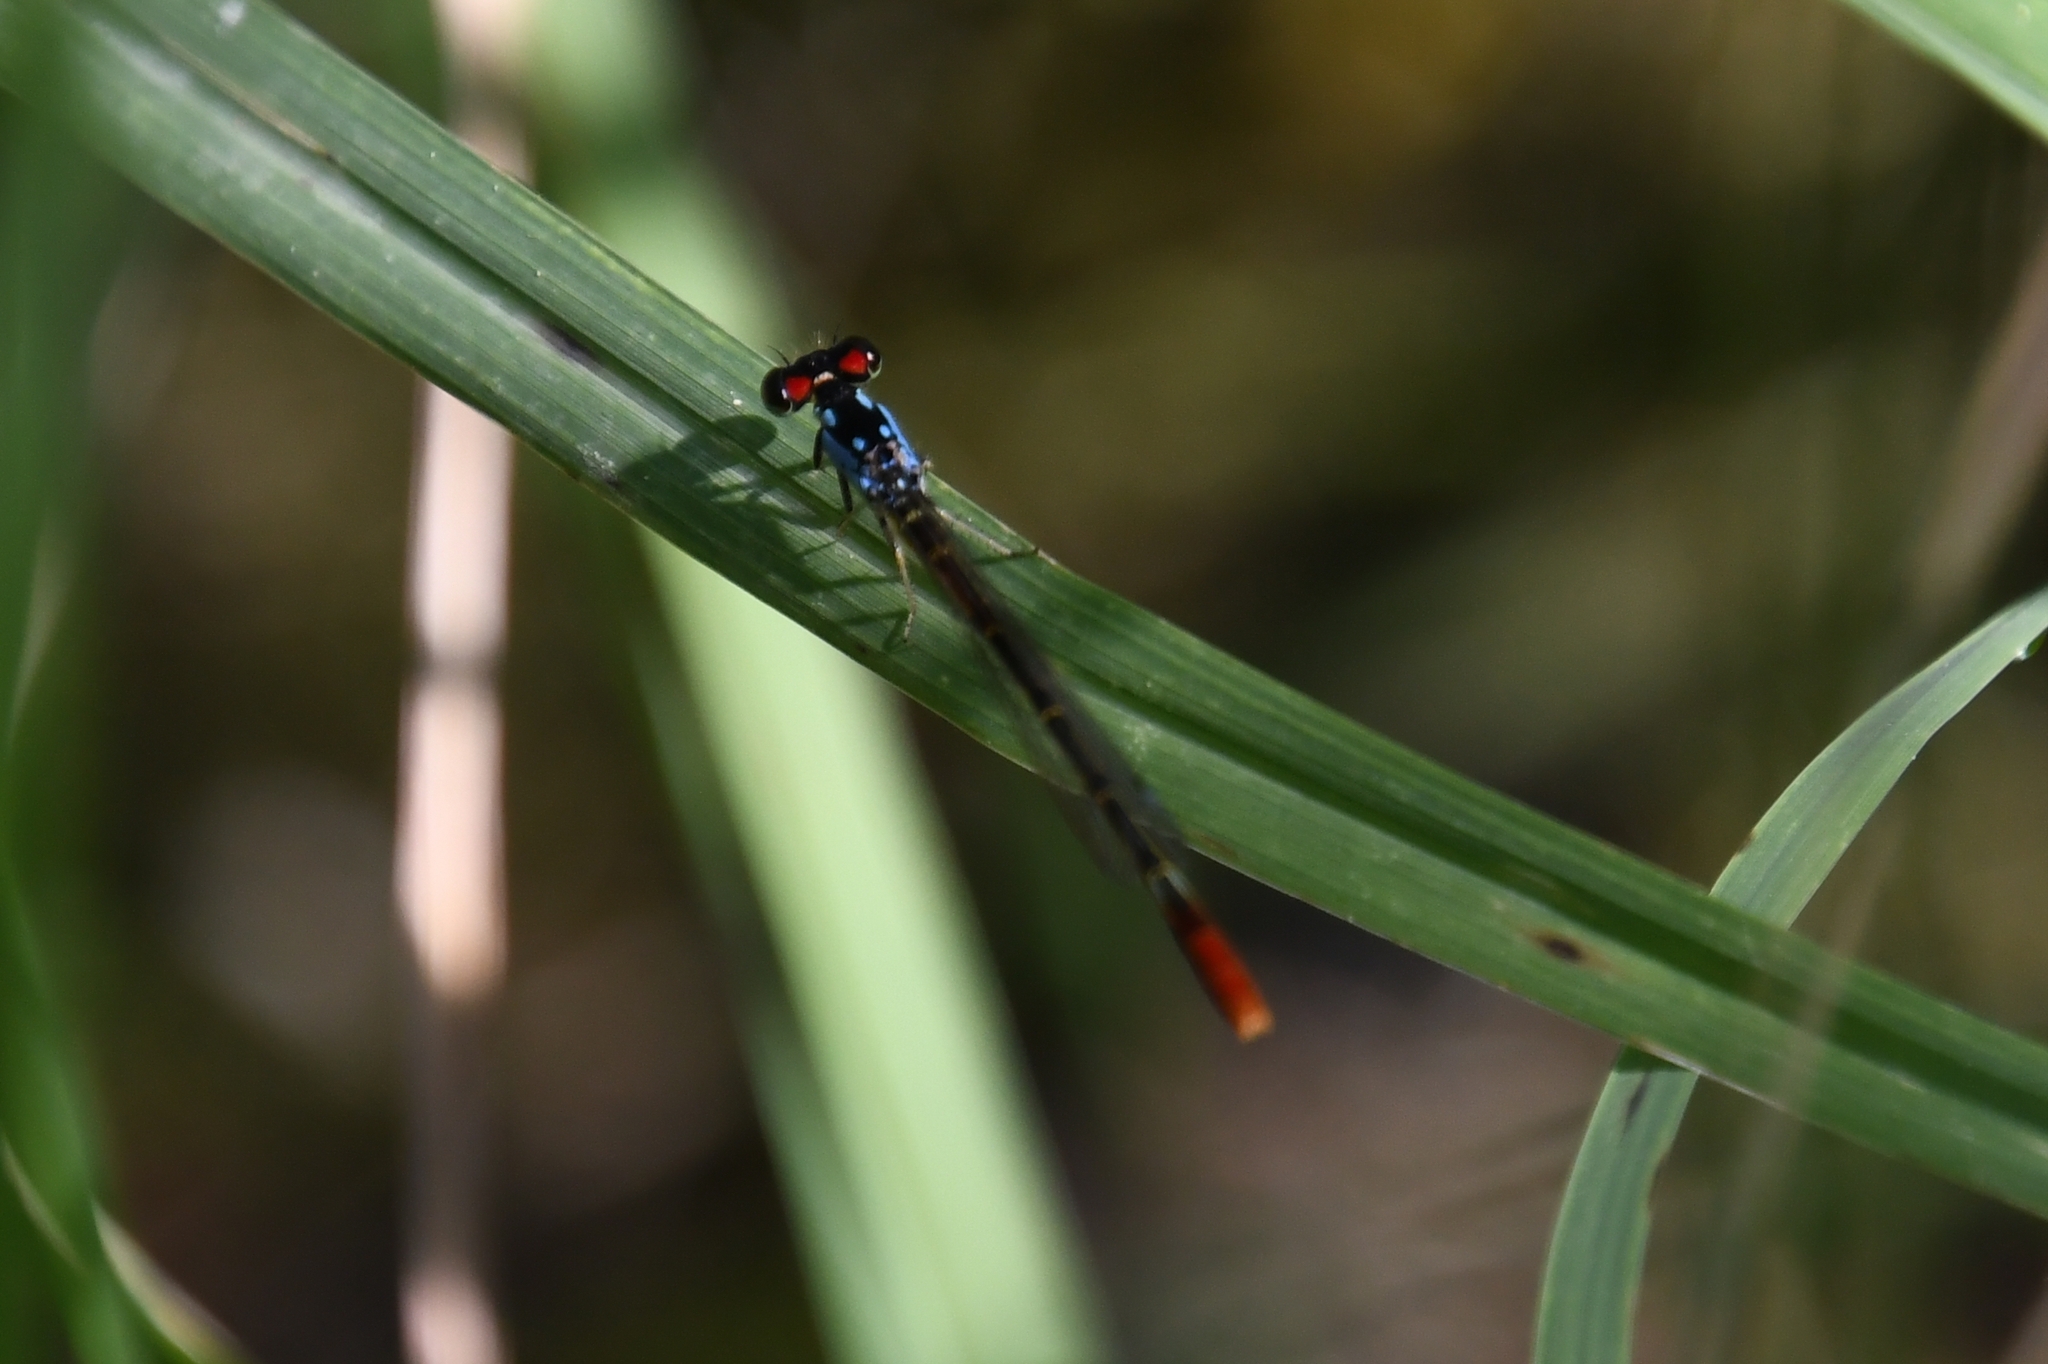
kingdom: Animalia
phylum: Arthropoda
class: Insecta
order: Odonata
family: Coenagrionidae
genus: Hesperagrion
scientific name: Hesperagrion heterodoxum
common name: Painted damsel
